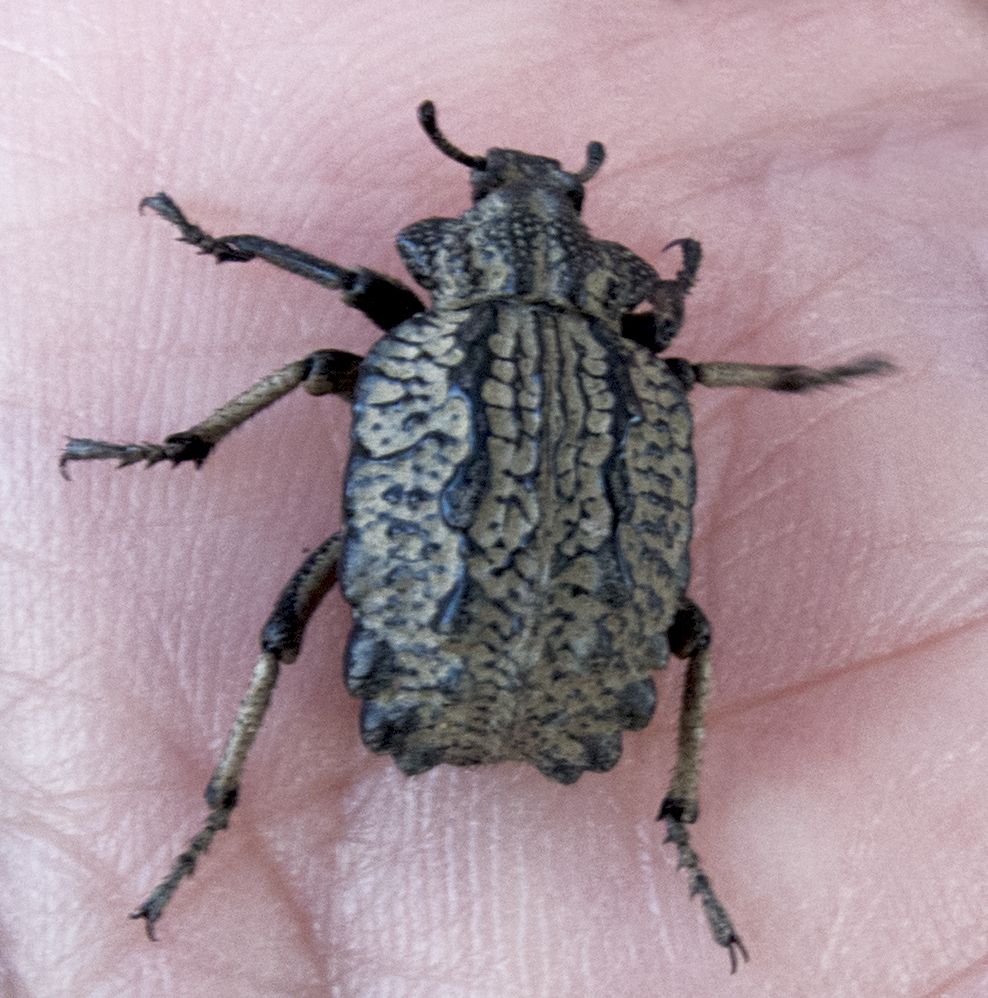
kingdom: Animalia
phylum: Arthropoda
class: Insecta
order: Coleoptera
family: Brachyceridae
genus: Brachycerus
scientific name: Brachycerus undatus
